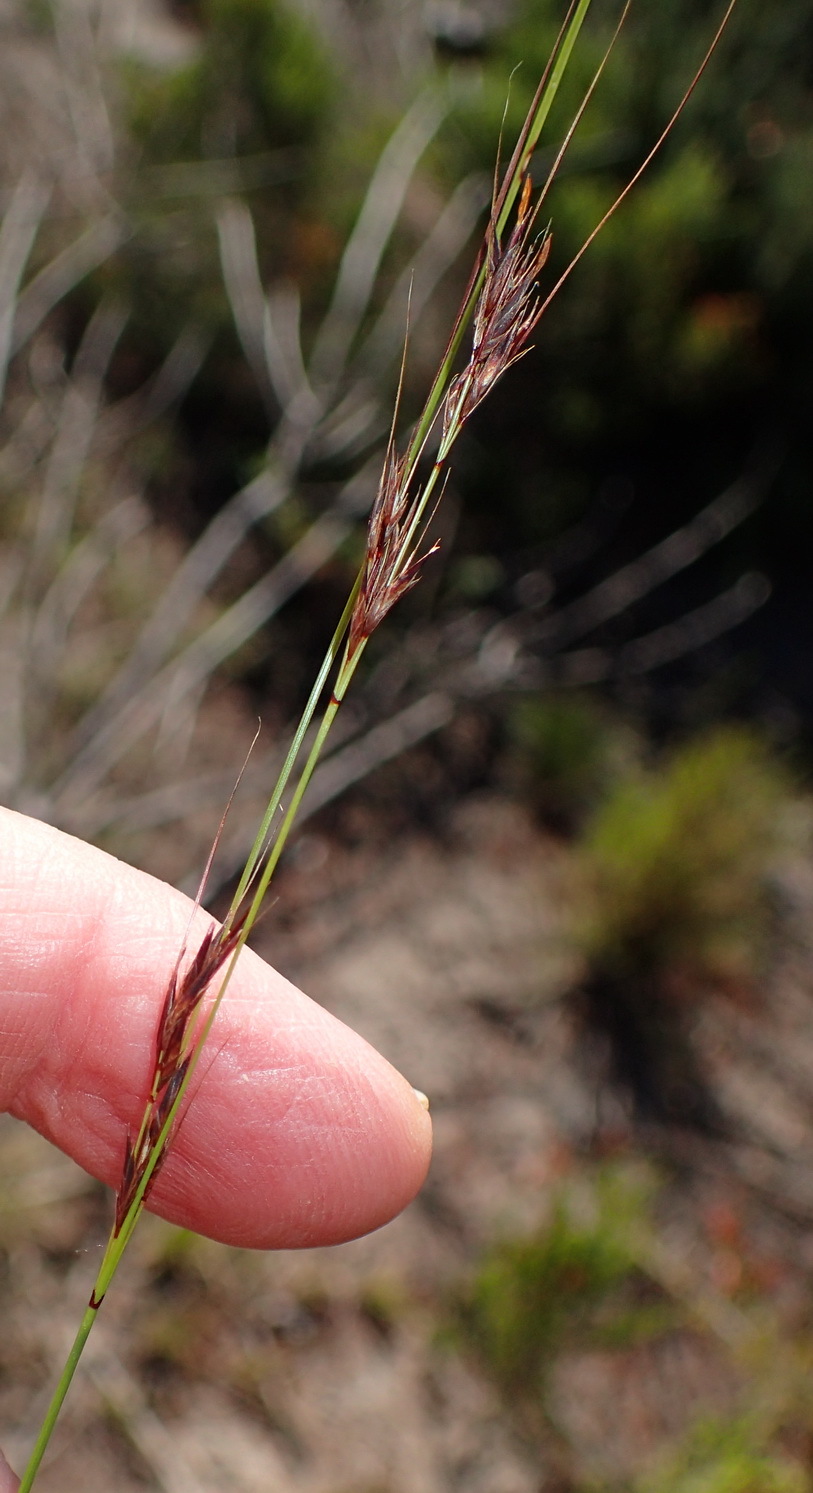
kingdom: Plantae
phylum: Tracheophyta
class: Liliopsida
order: Poales
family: Cyperaceae
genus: Schoenus
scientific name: Schoenus graciliculmis
